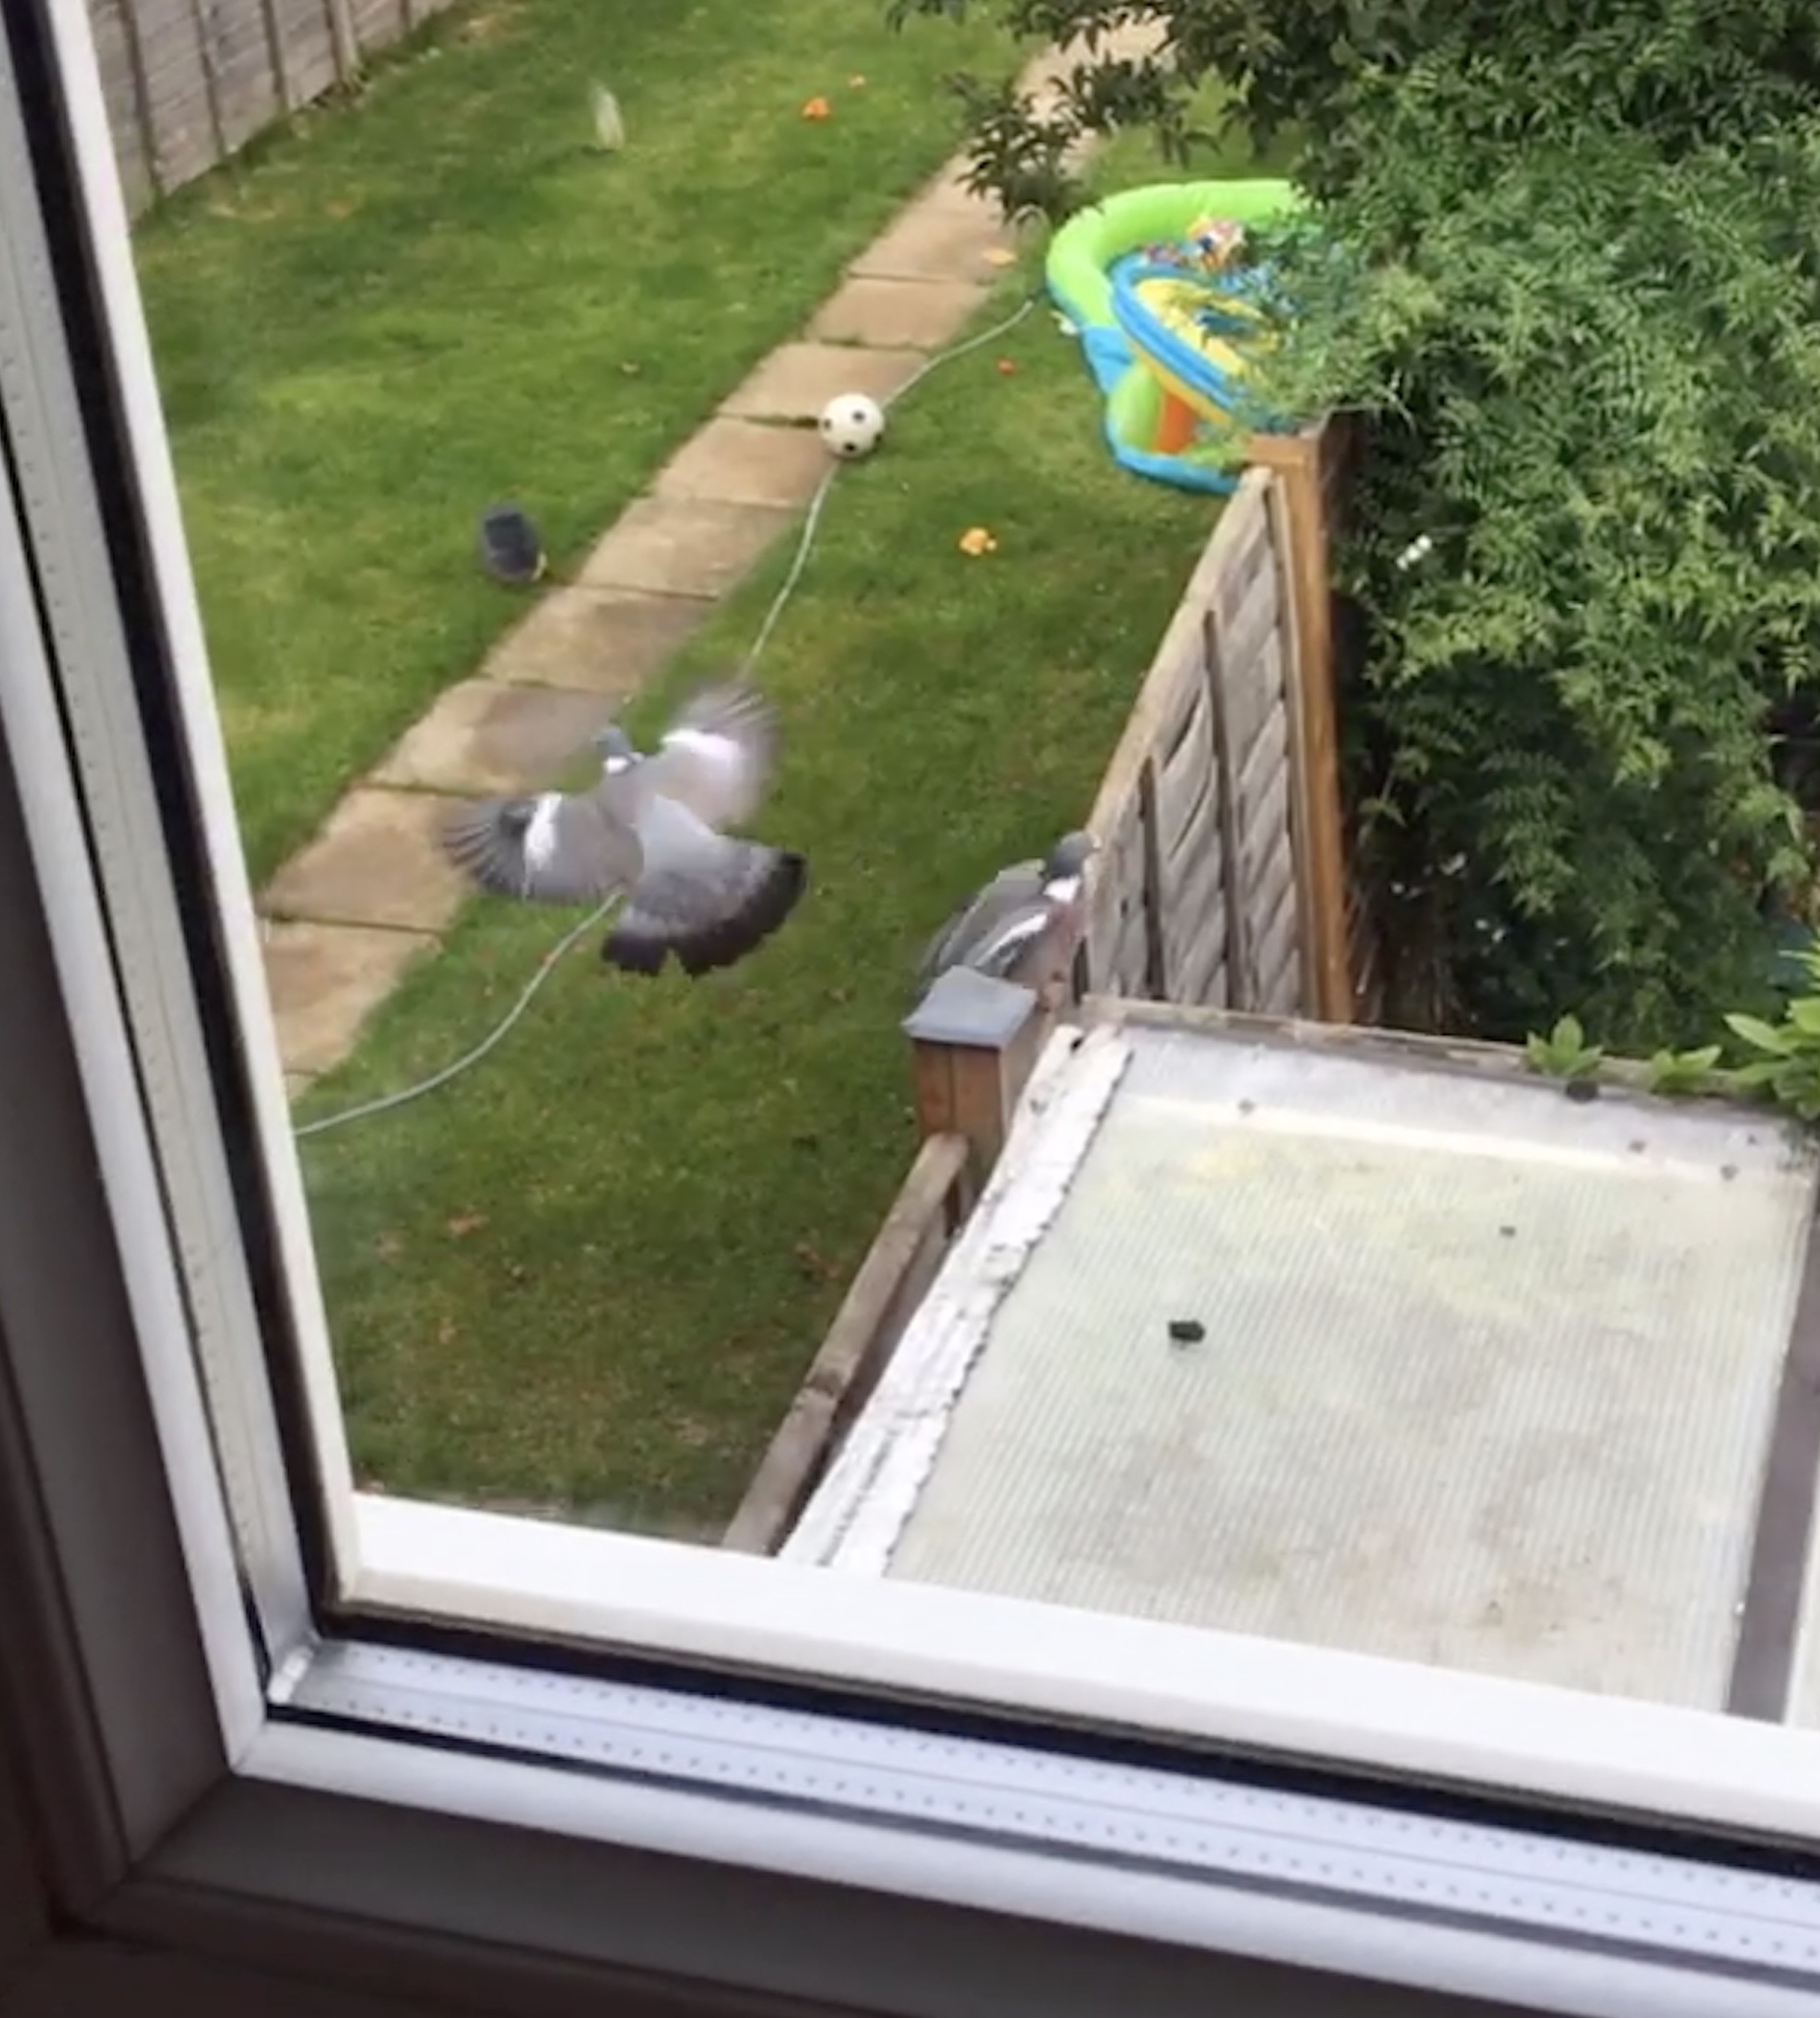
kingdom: Animalia
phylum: Chordata
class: Aves
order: Columbiformes
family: Columbidae
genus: Columba
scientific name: Columba palumbus
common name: Common wood pigeon
